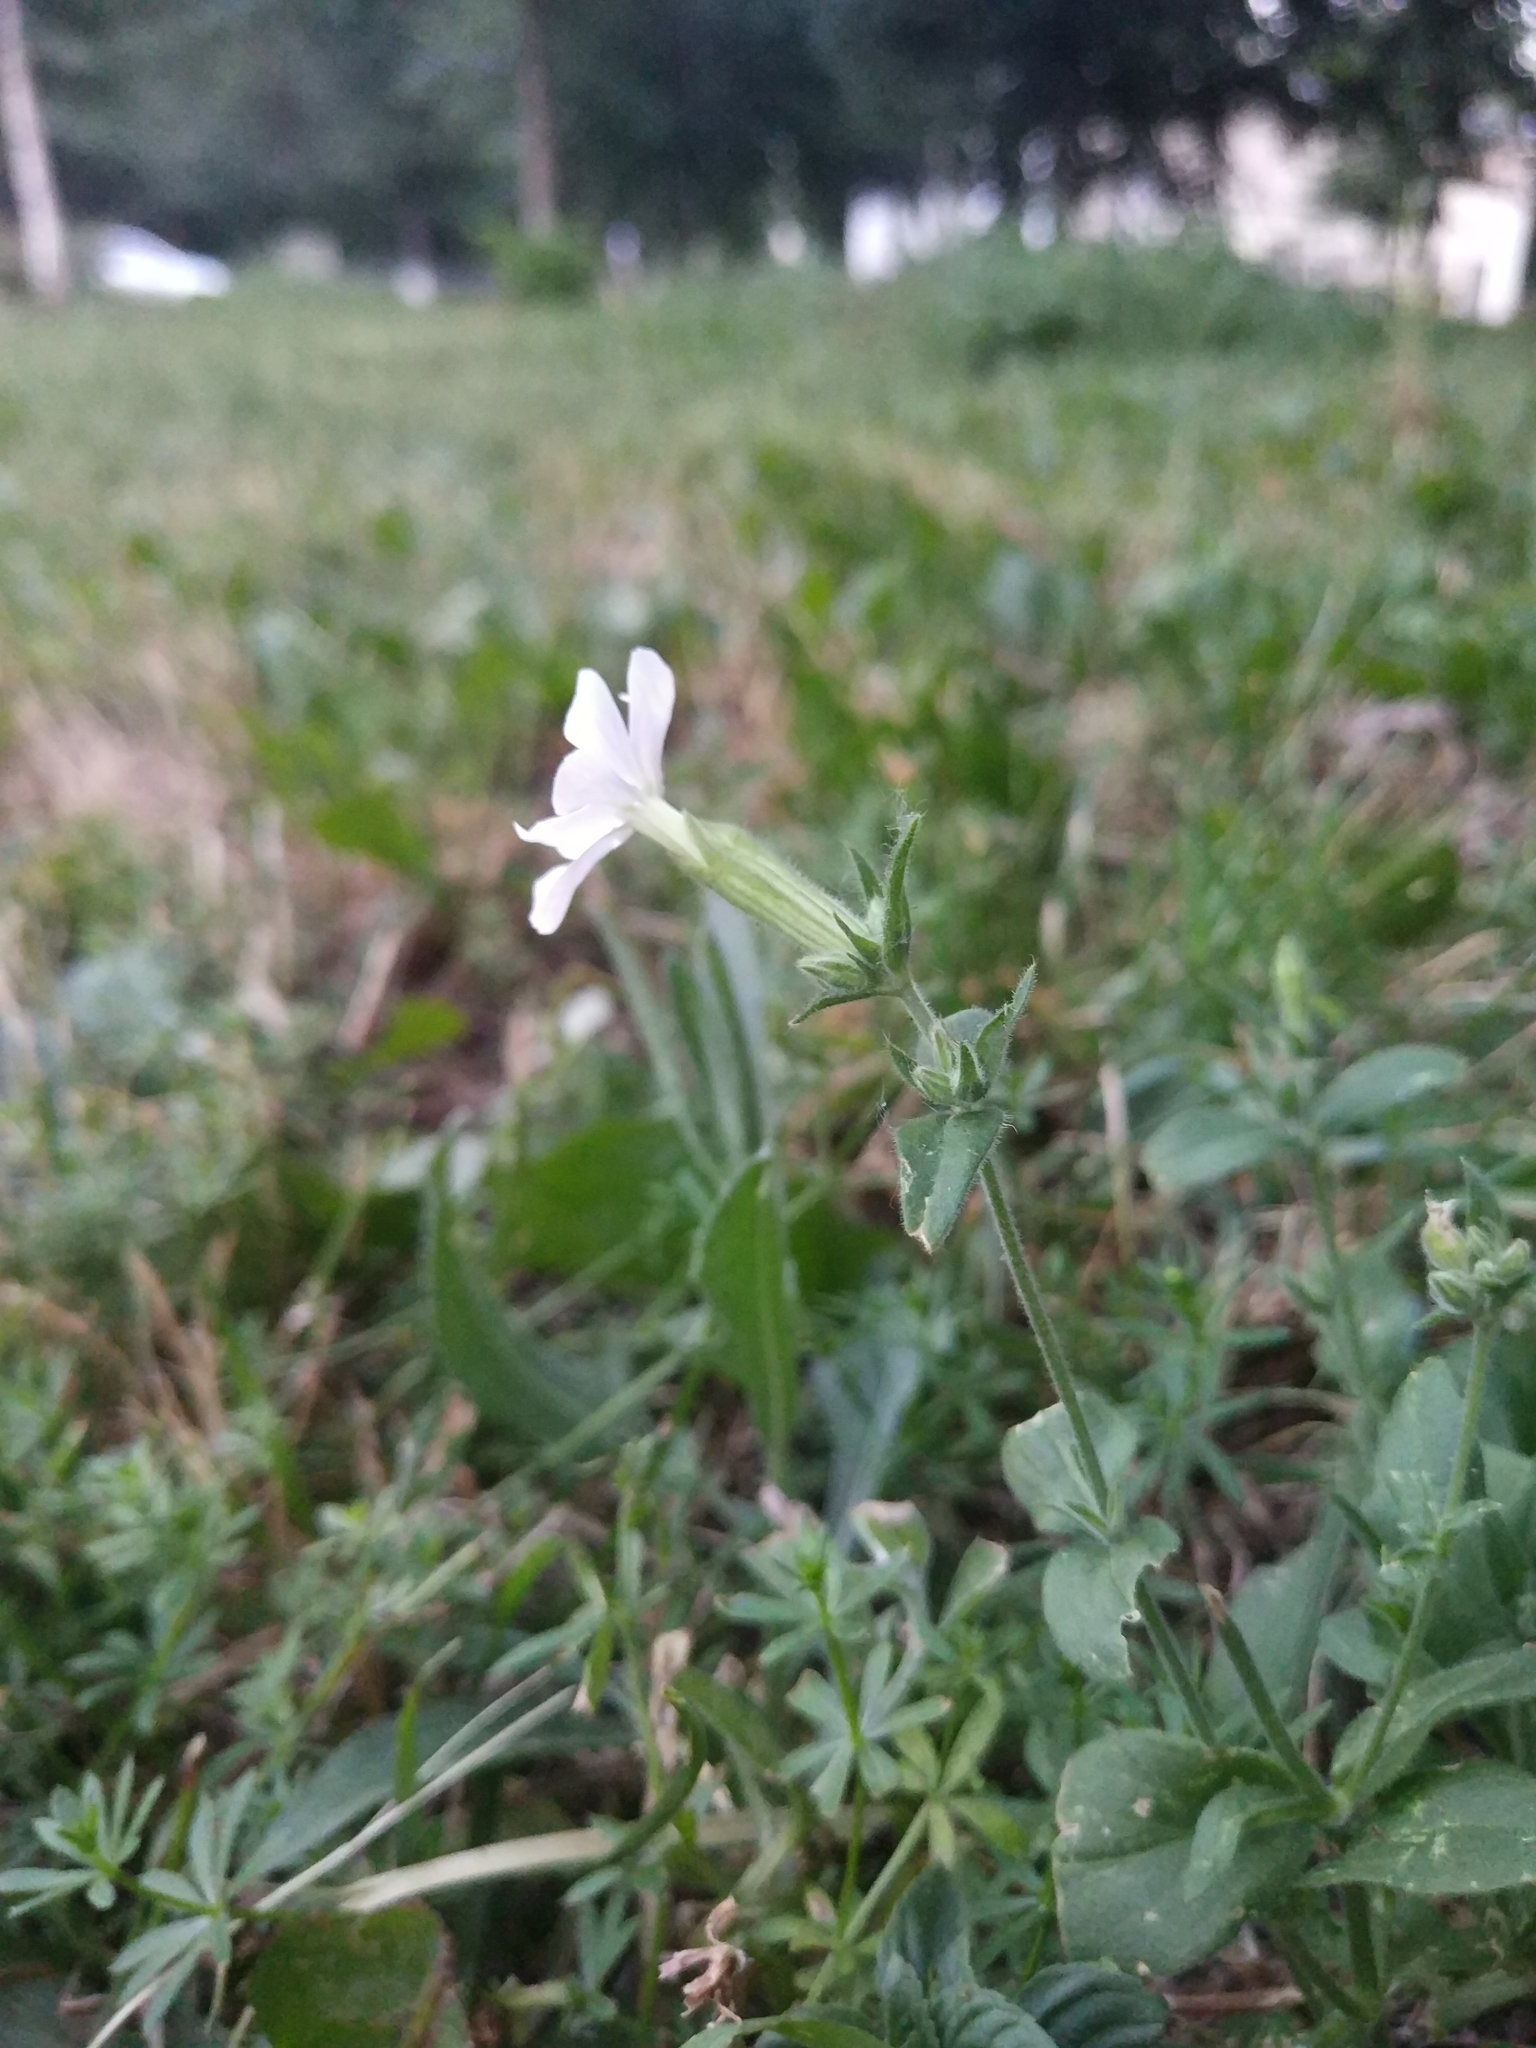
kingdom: Plantae
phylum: Tracheophyta
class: Magnoliopsida
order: Caryophyllales
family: Caryophyllaceae
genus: Silene
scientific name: Silene latifolia
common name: White campion
